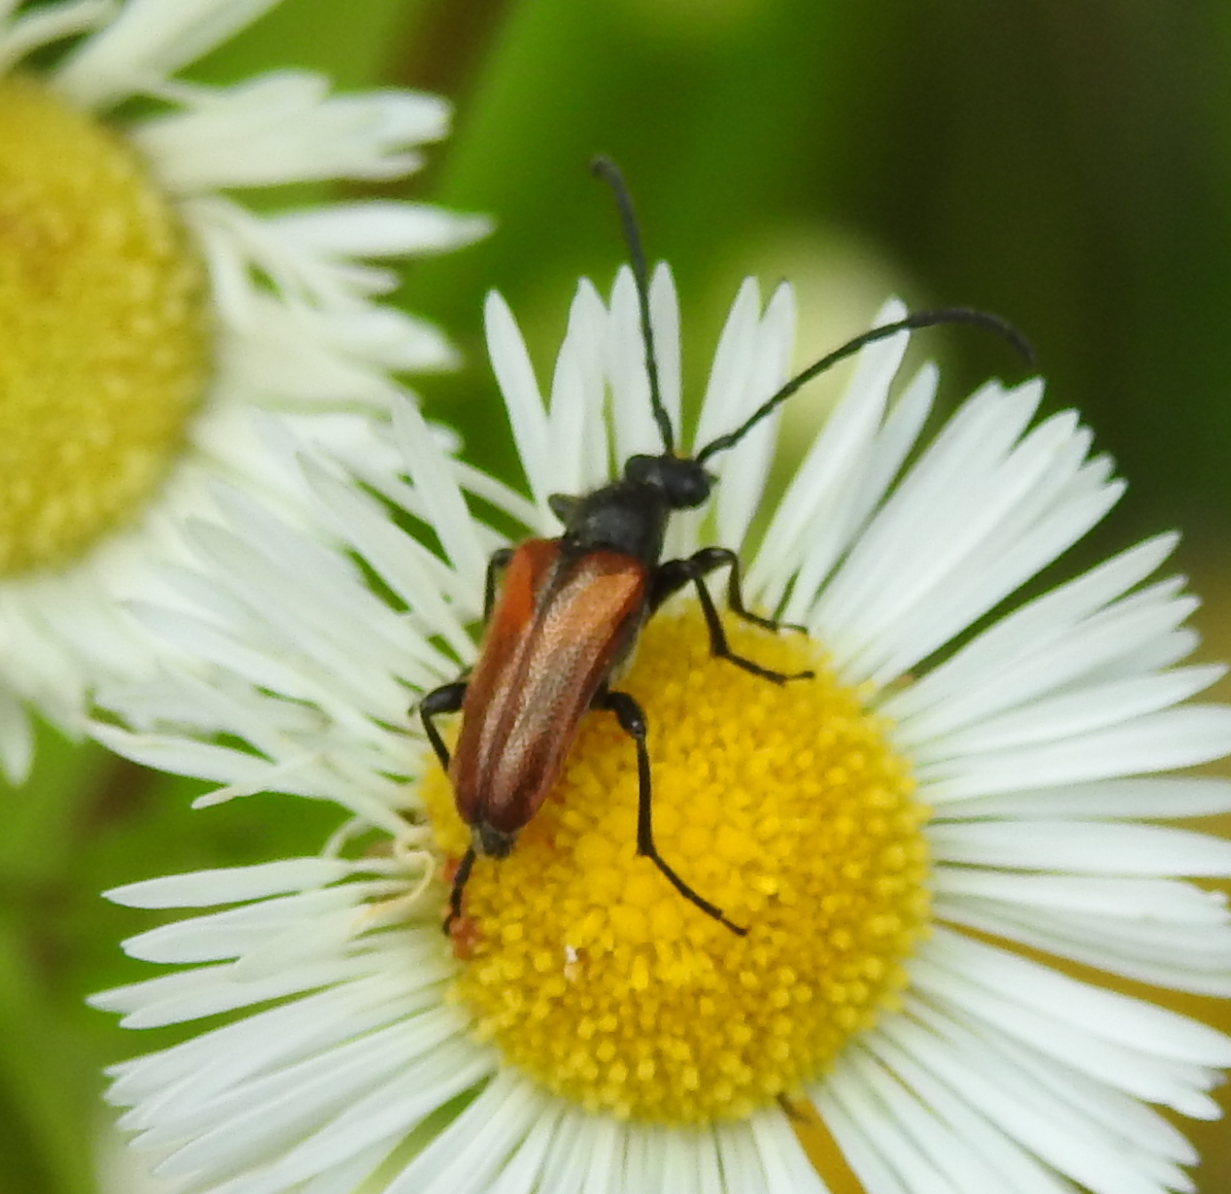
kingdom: Animalia
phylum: Arthropoda
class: Insecta
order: Coleoptera
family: Cerambycidae
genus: Pseudovadonia
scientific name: Pseudovadonia livida
